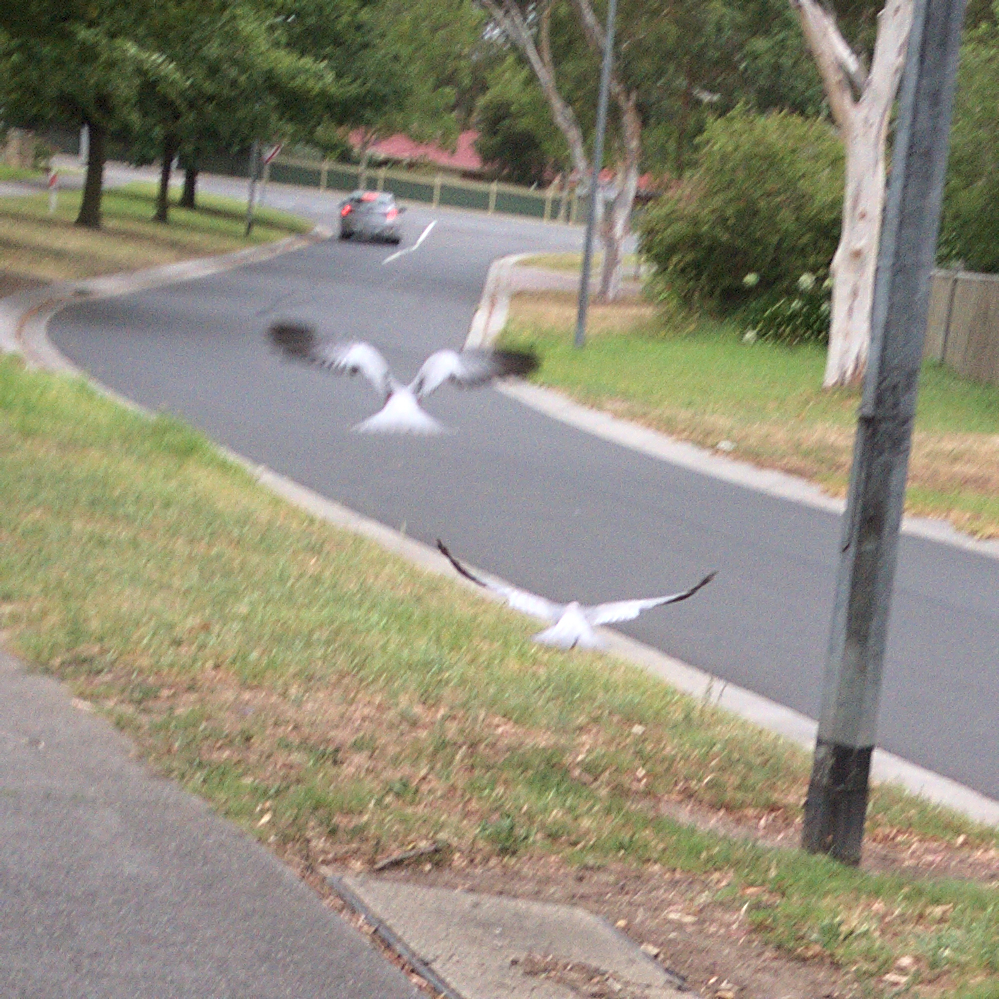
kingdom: Animalia
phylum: Chordata
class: Aves
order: Psittaciformes
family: Psittacidae
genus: Eolophus
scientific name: Eolophus roseicapilla
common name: Galah
